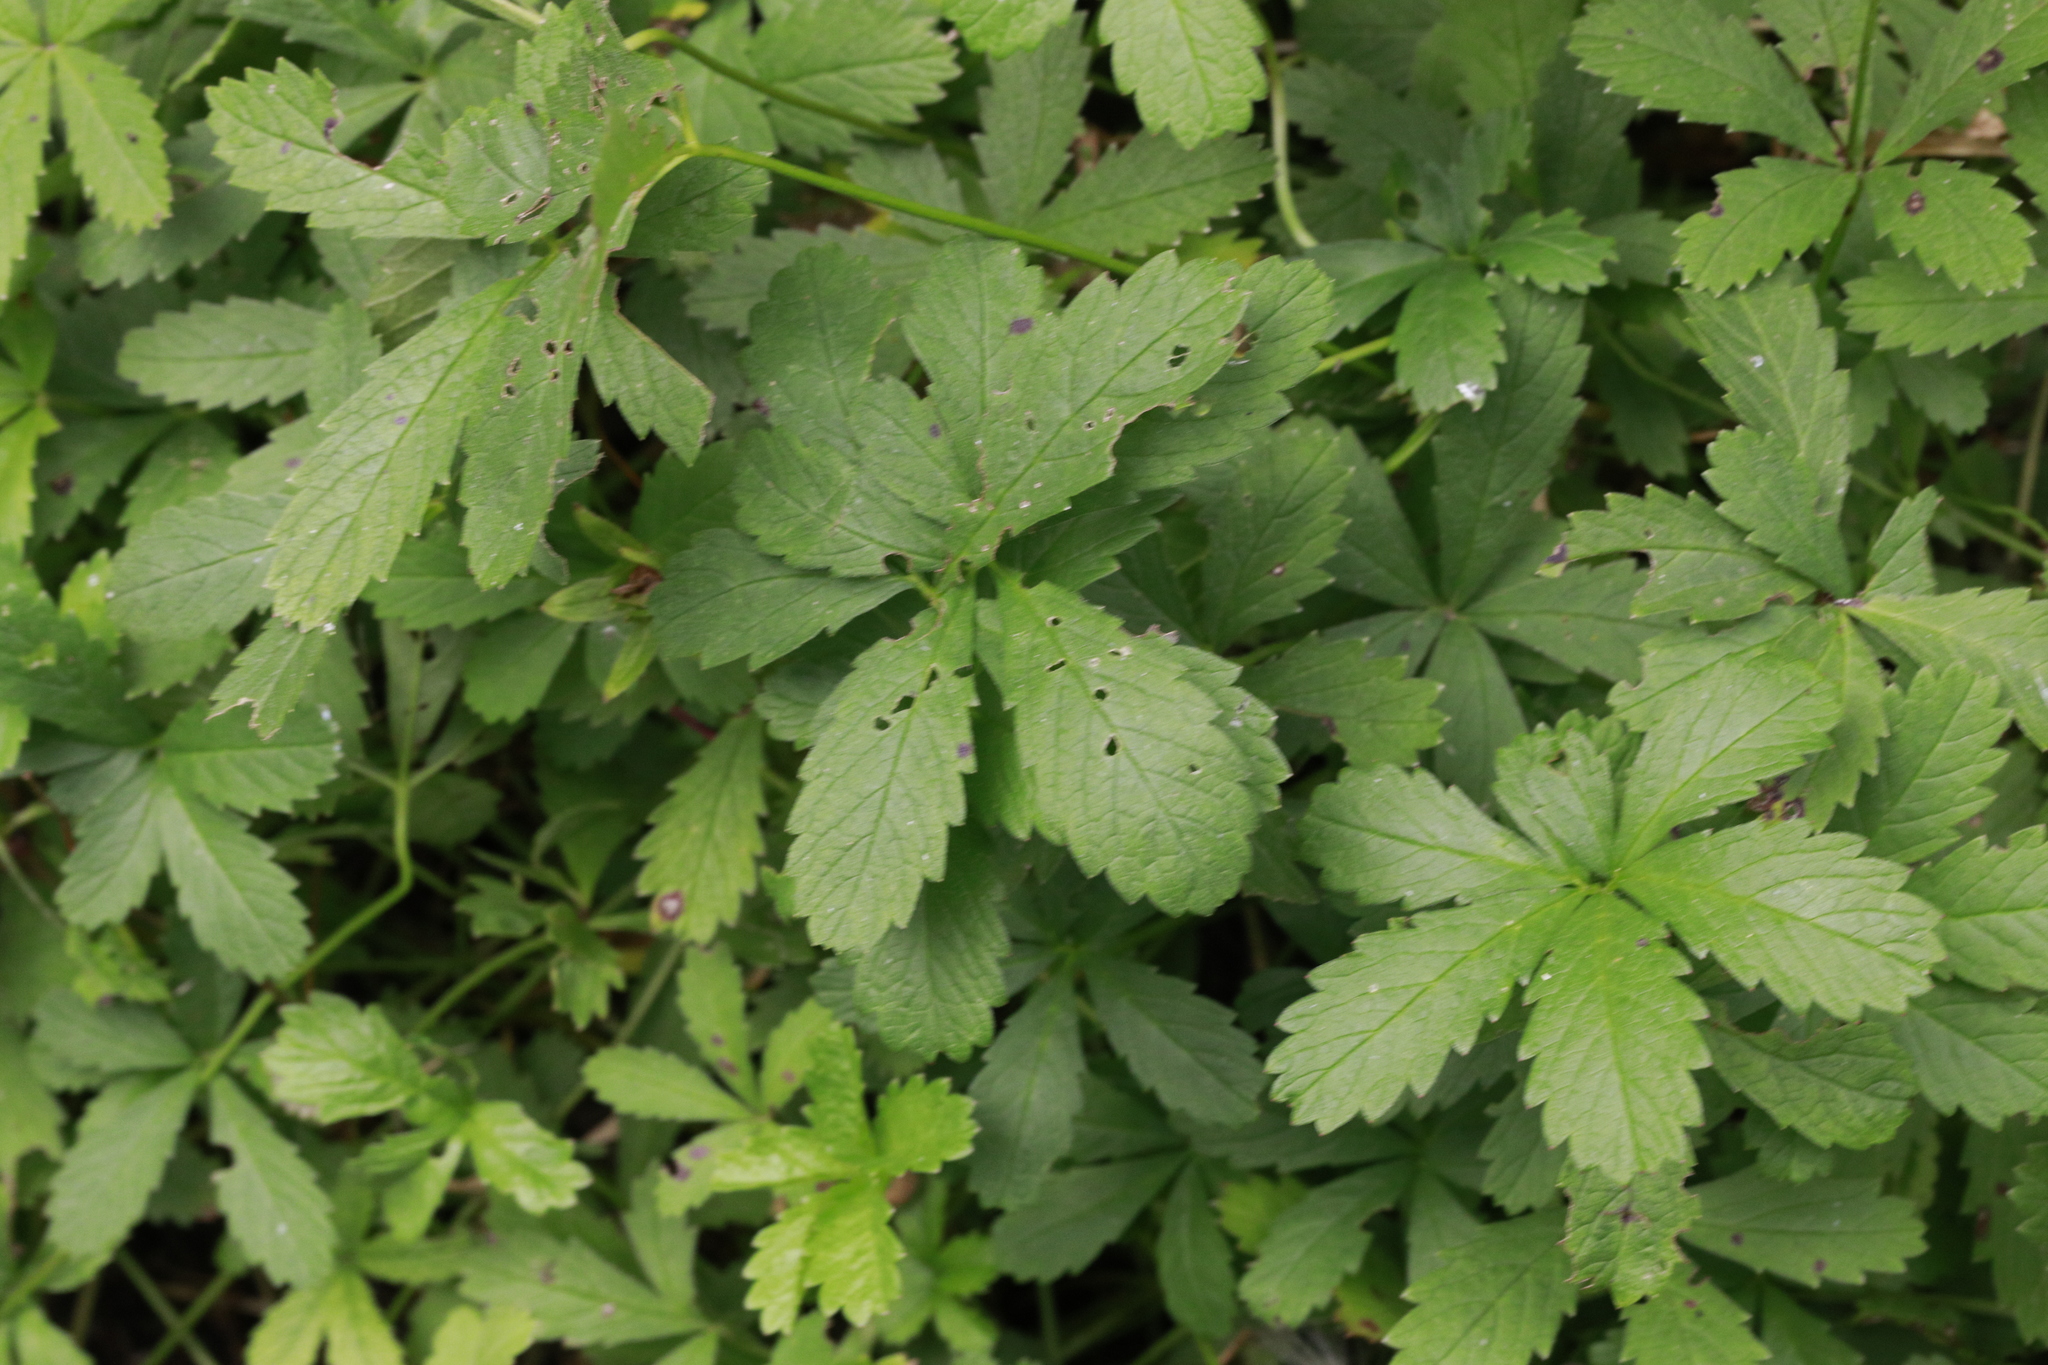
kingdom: Plantae
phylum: Tracheophyta
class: Magnoliopsida
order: Rosales
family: Rosaceae
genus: Potentilla
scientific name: Potentilla reptans
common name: Creeping cinquefoil
